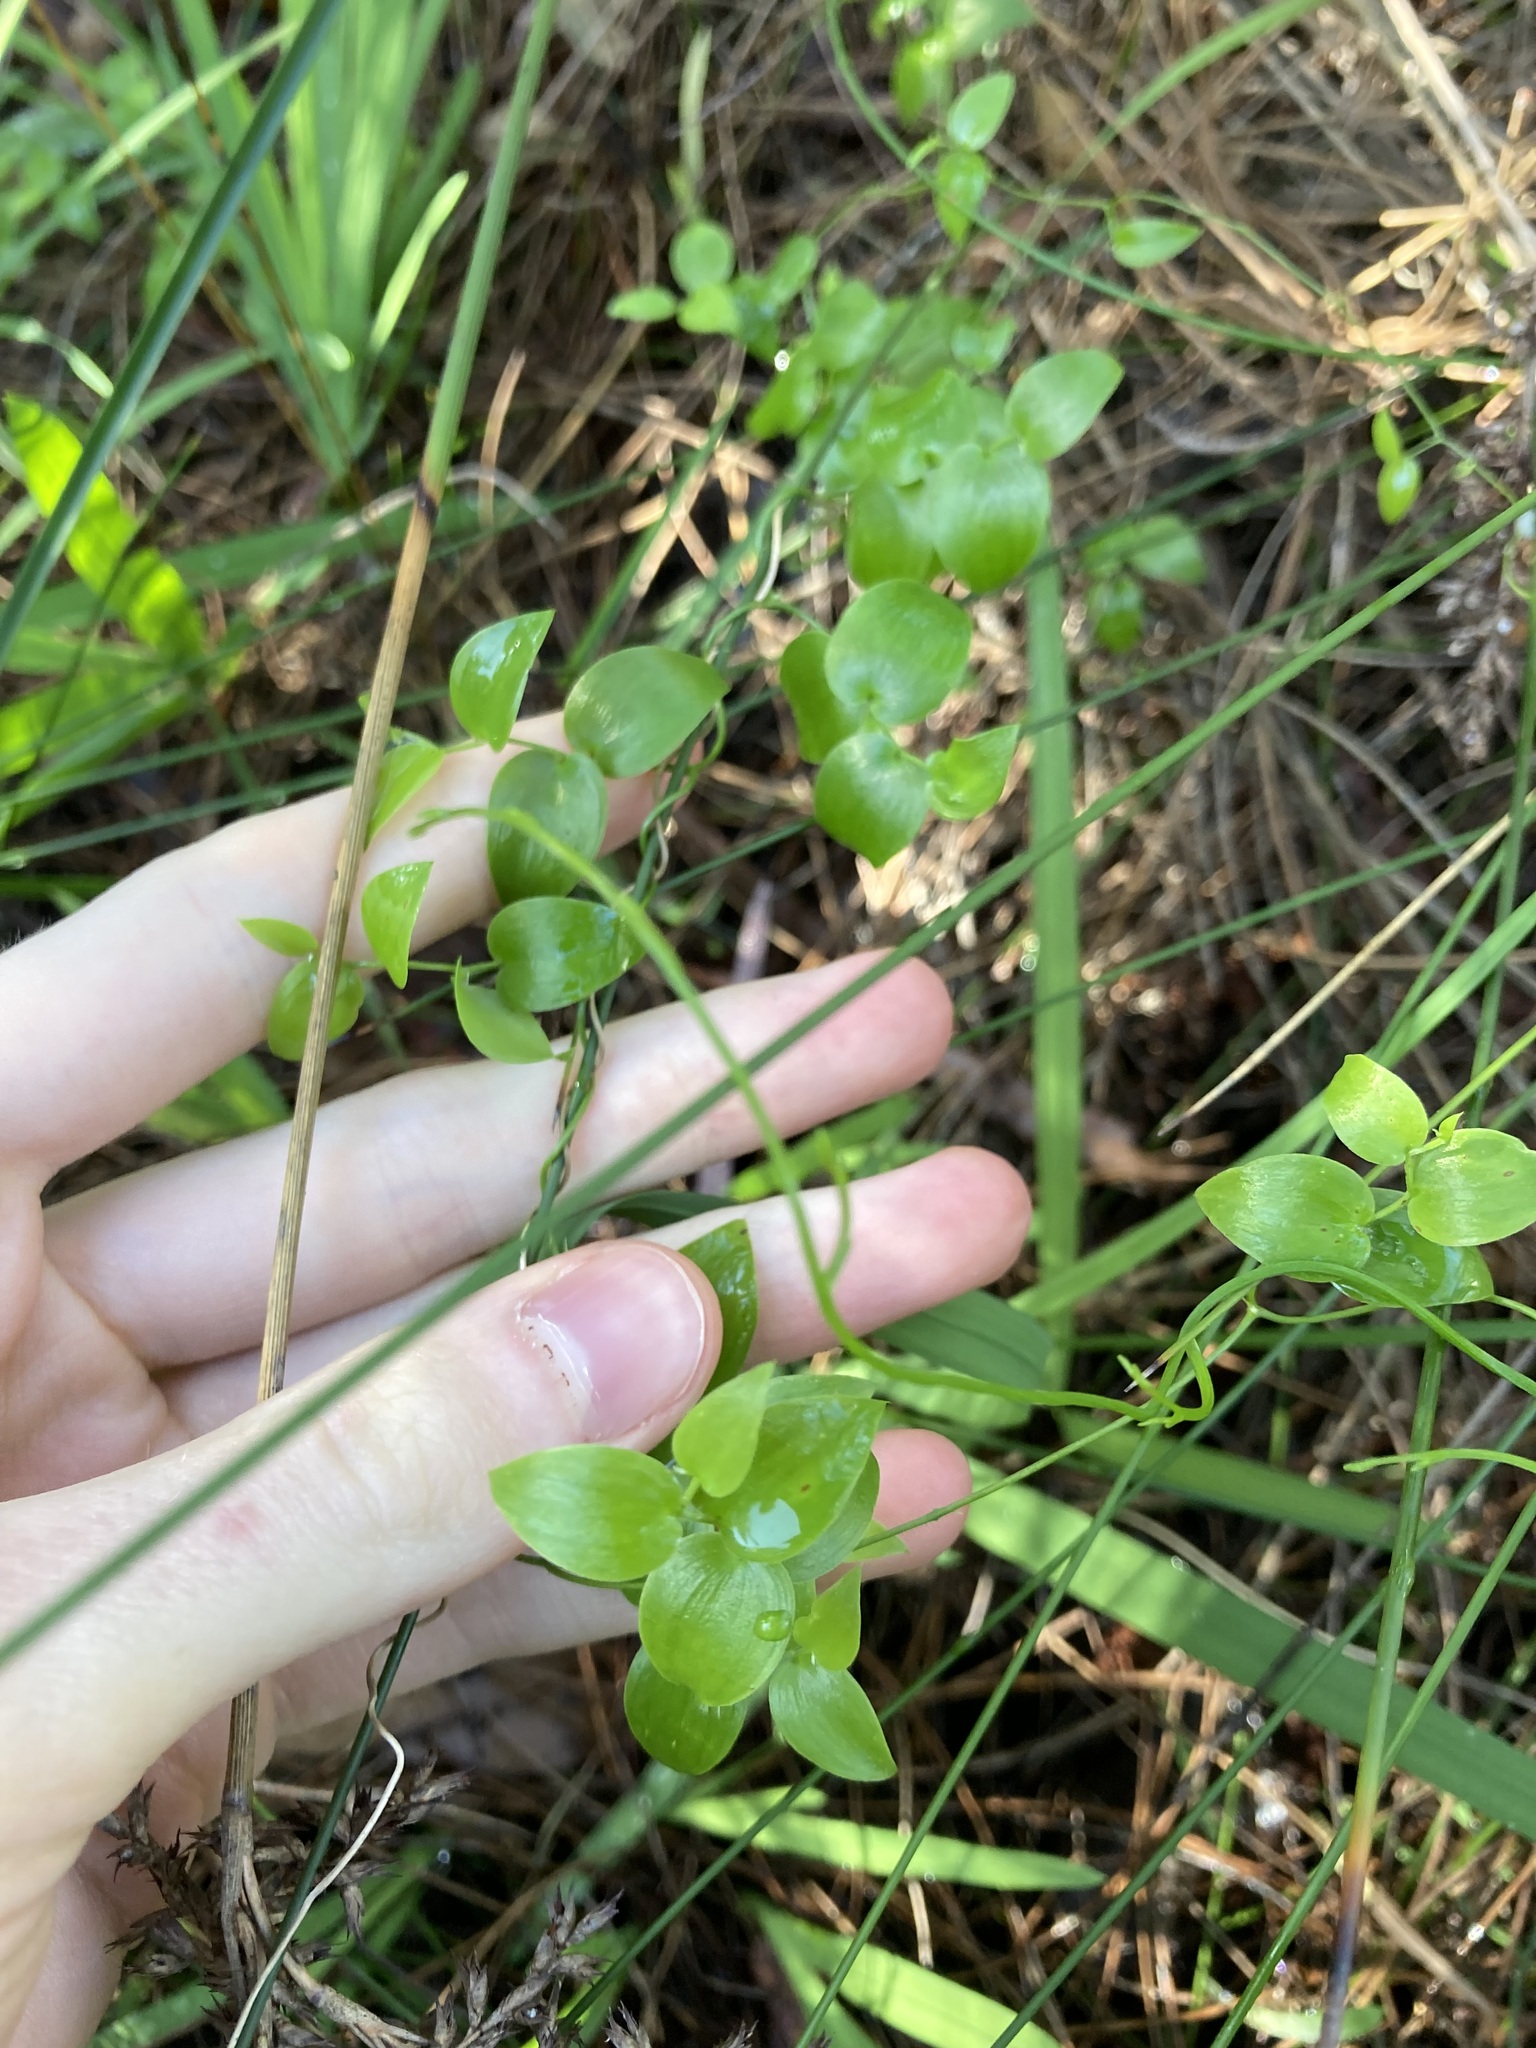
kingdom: Plantae
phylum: Tracheophyta
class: Liliopsida
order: Asparagales
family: Asparagaceae
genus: Asparagus
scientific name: Asparagus asparagoides
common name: African asparagus fern
